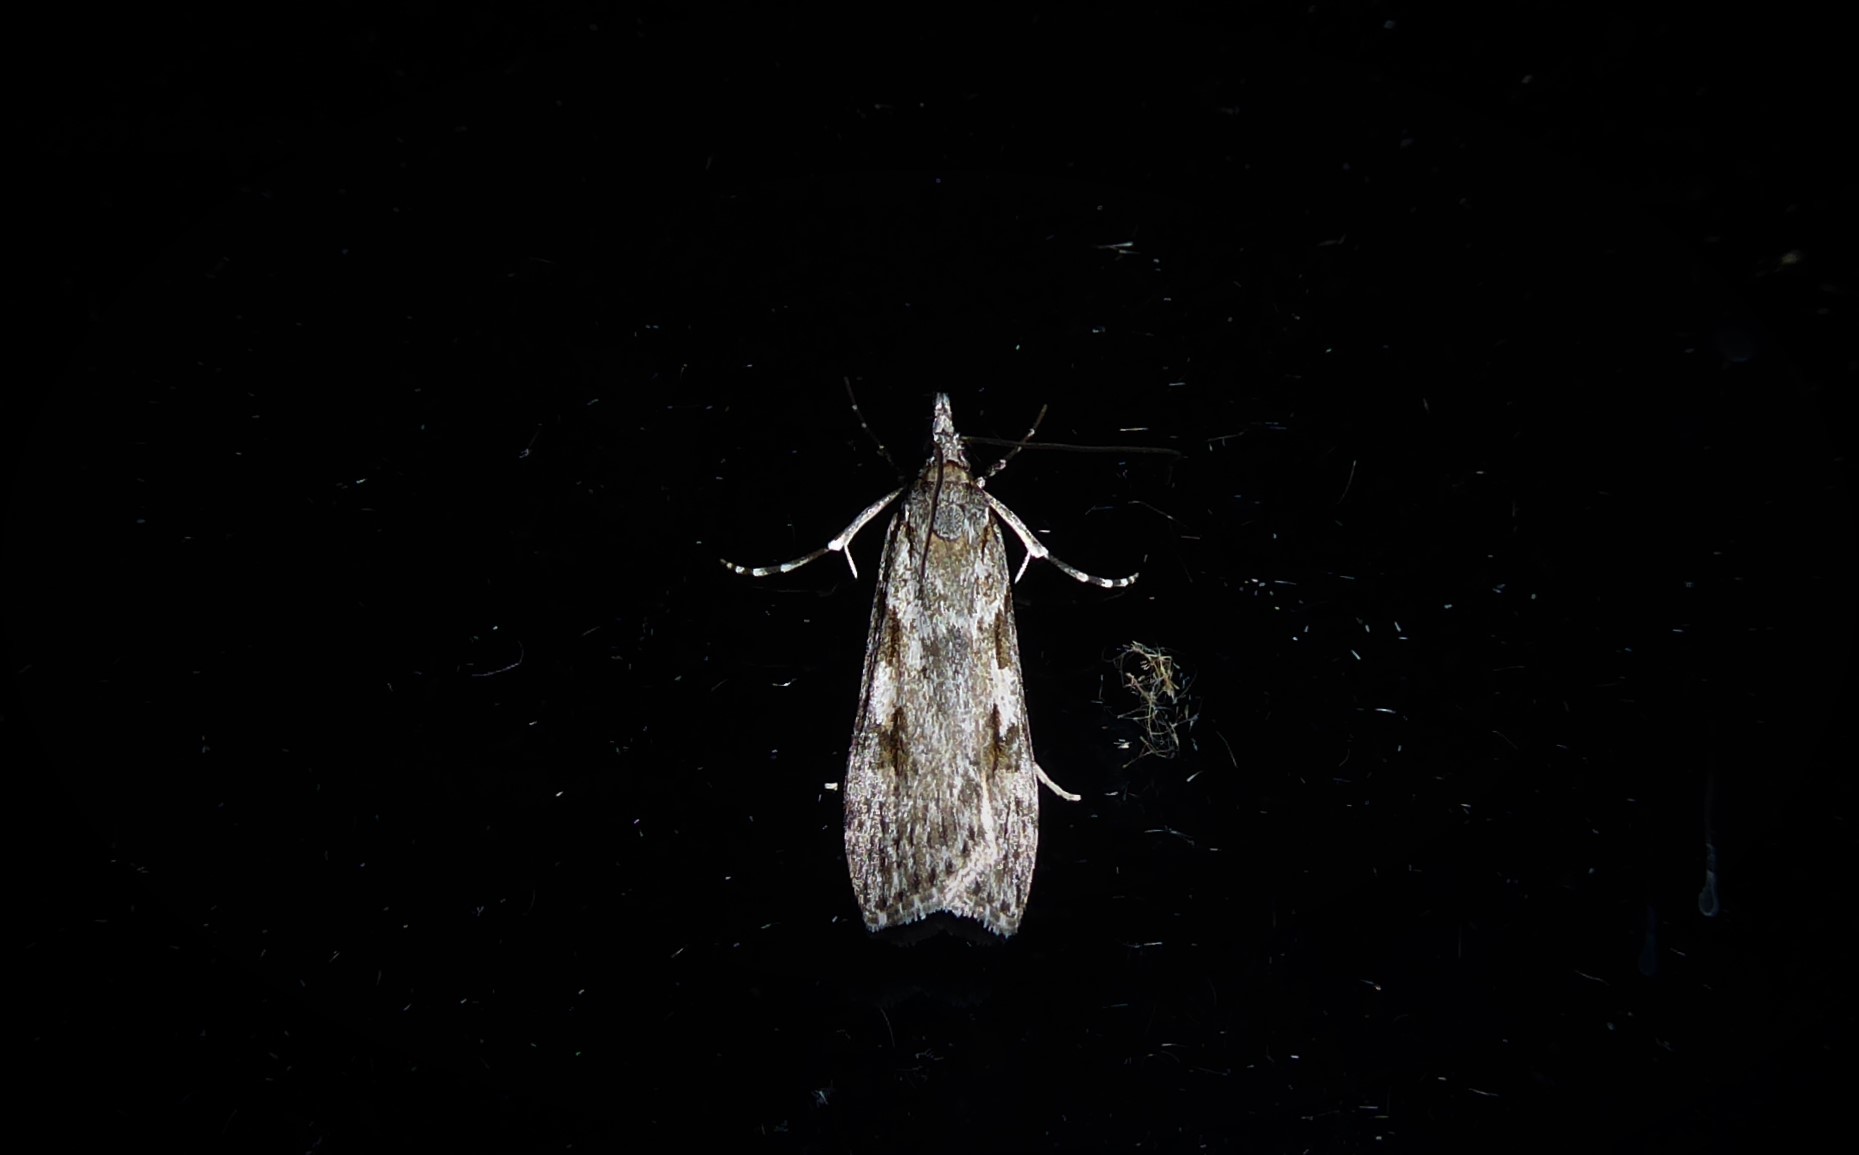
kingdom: Animalia
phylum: Arthropoda
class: Insecta
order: Lepidoptera
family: Crambidae
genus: Scoparia
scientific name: Scoparia halopis
